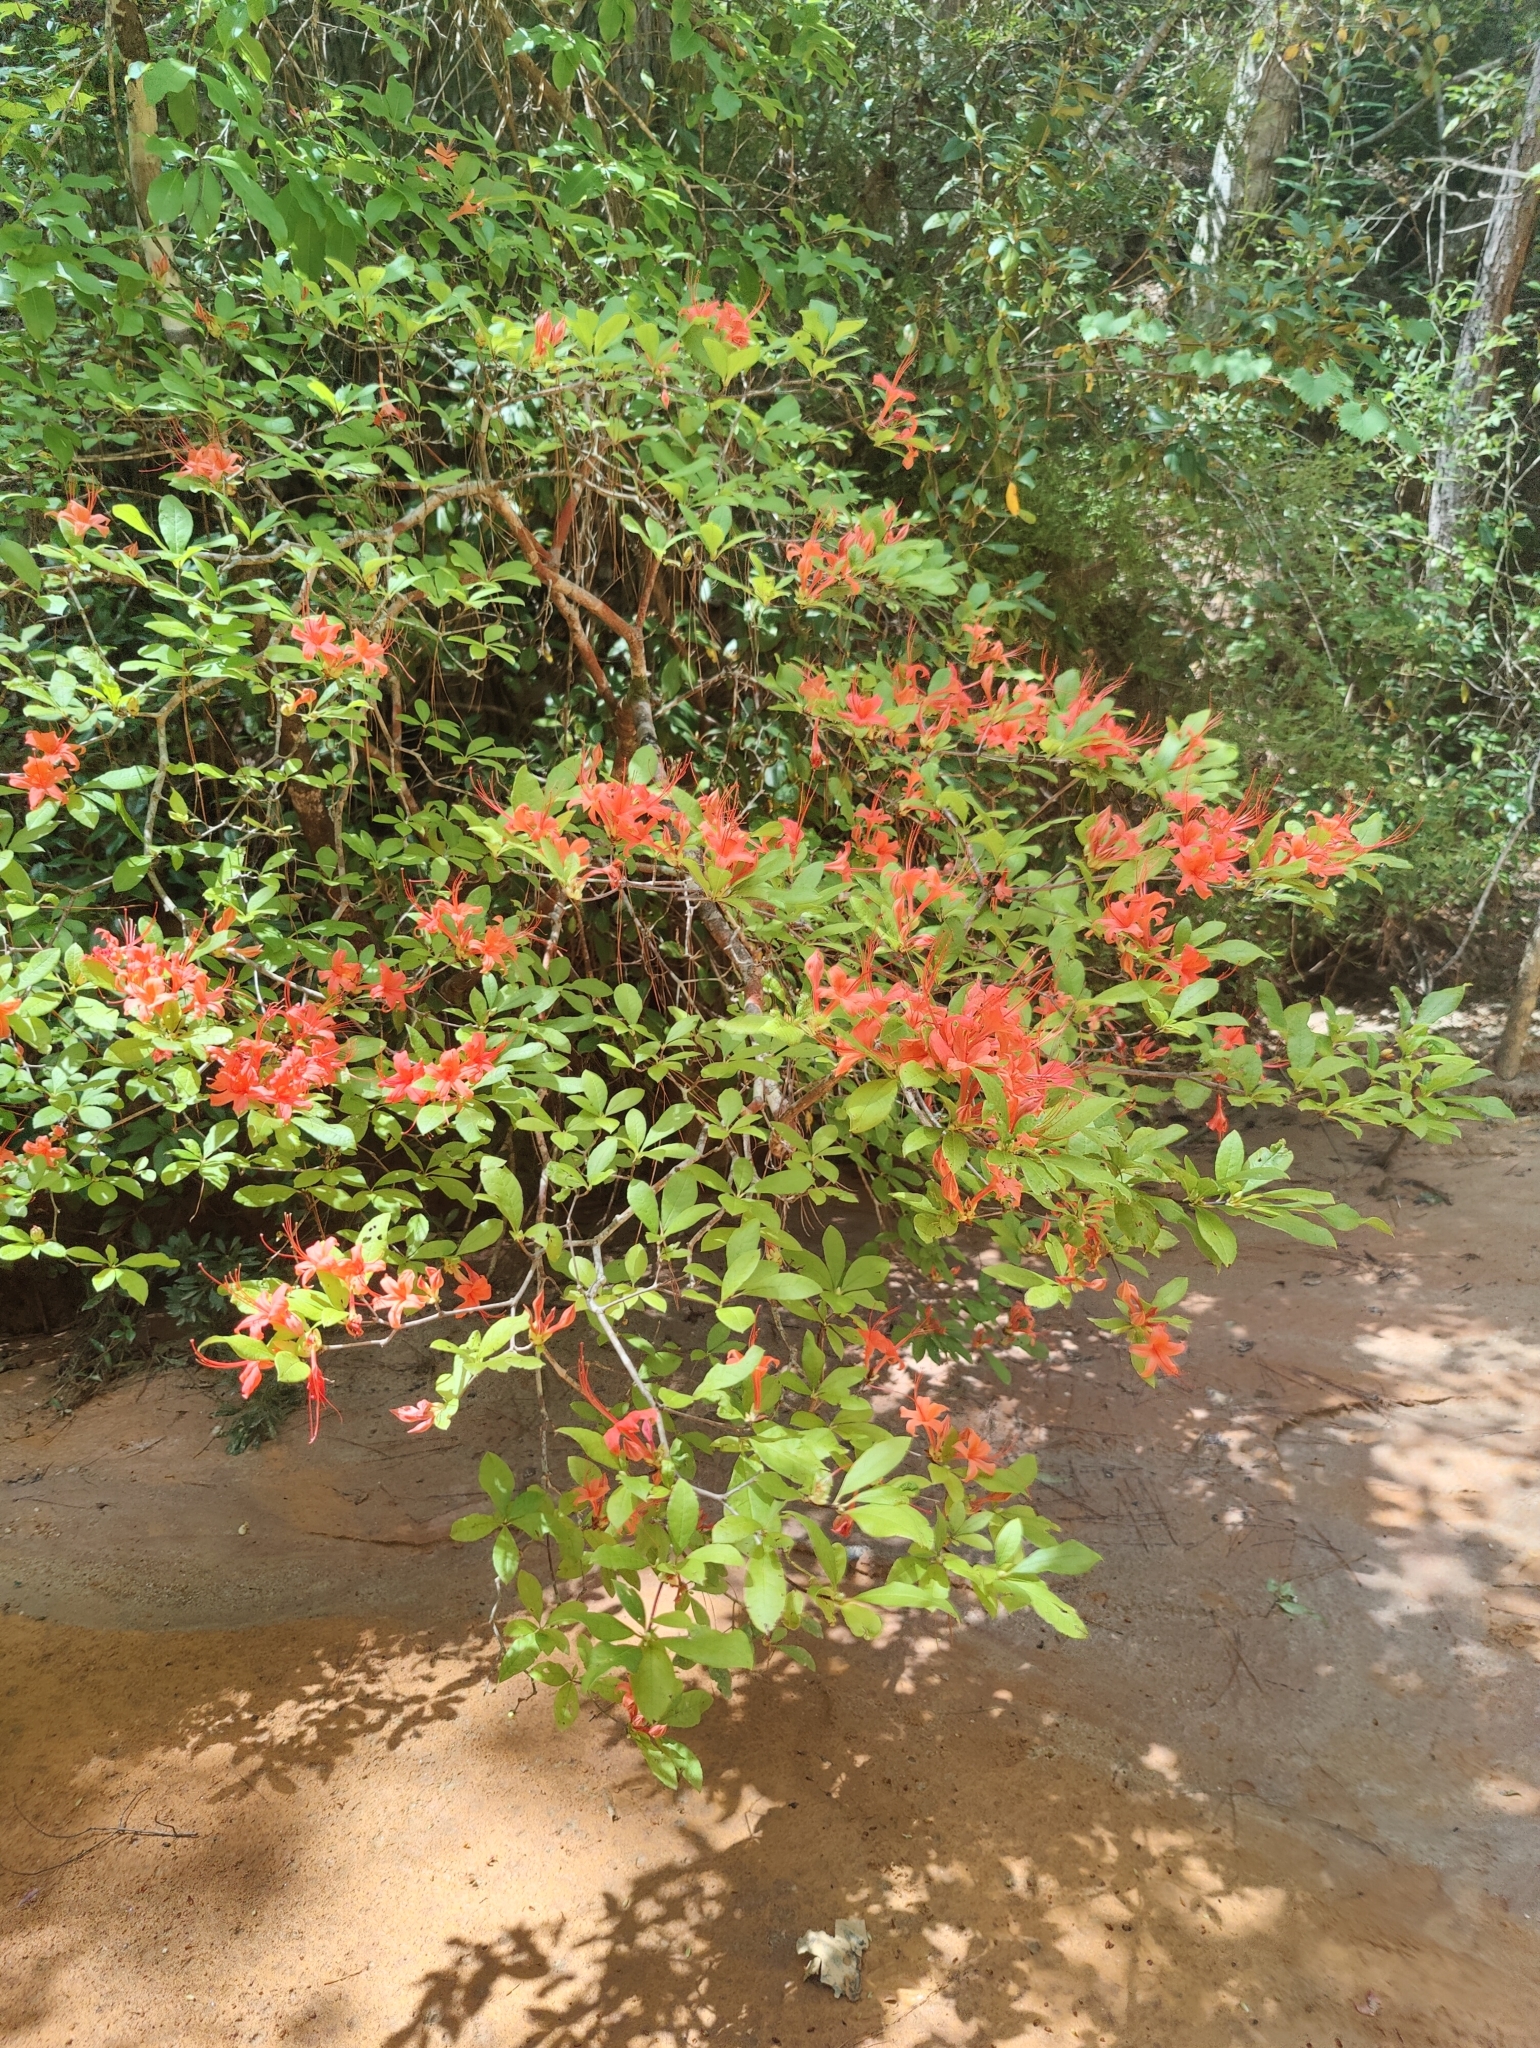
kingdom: Plantae
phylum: Tracheophyta
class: Magnoliopsida
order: Ericales
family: Ericaceae
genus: Rhododendron
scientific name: Rhododendron prunifolium
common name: Plum-leaf azalea
